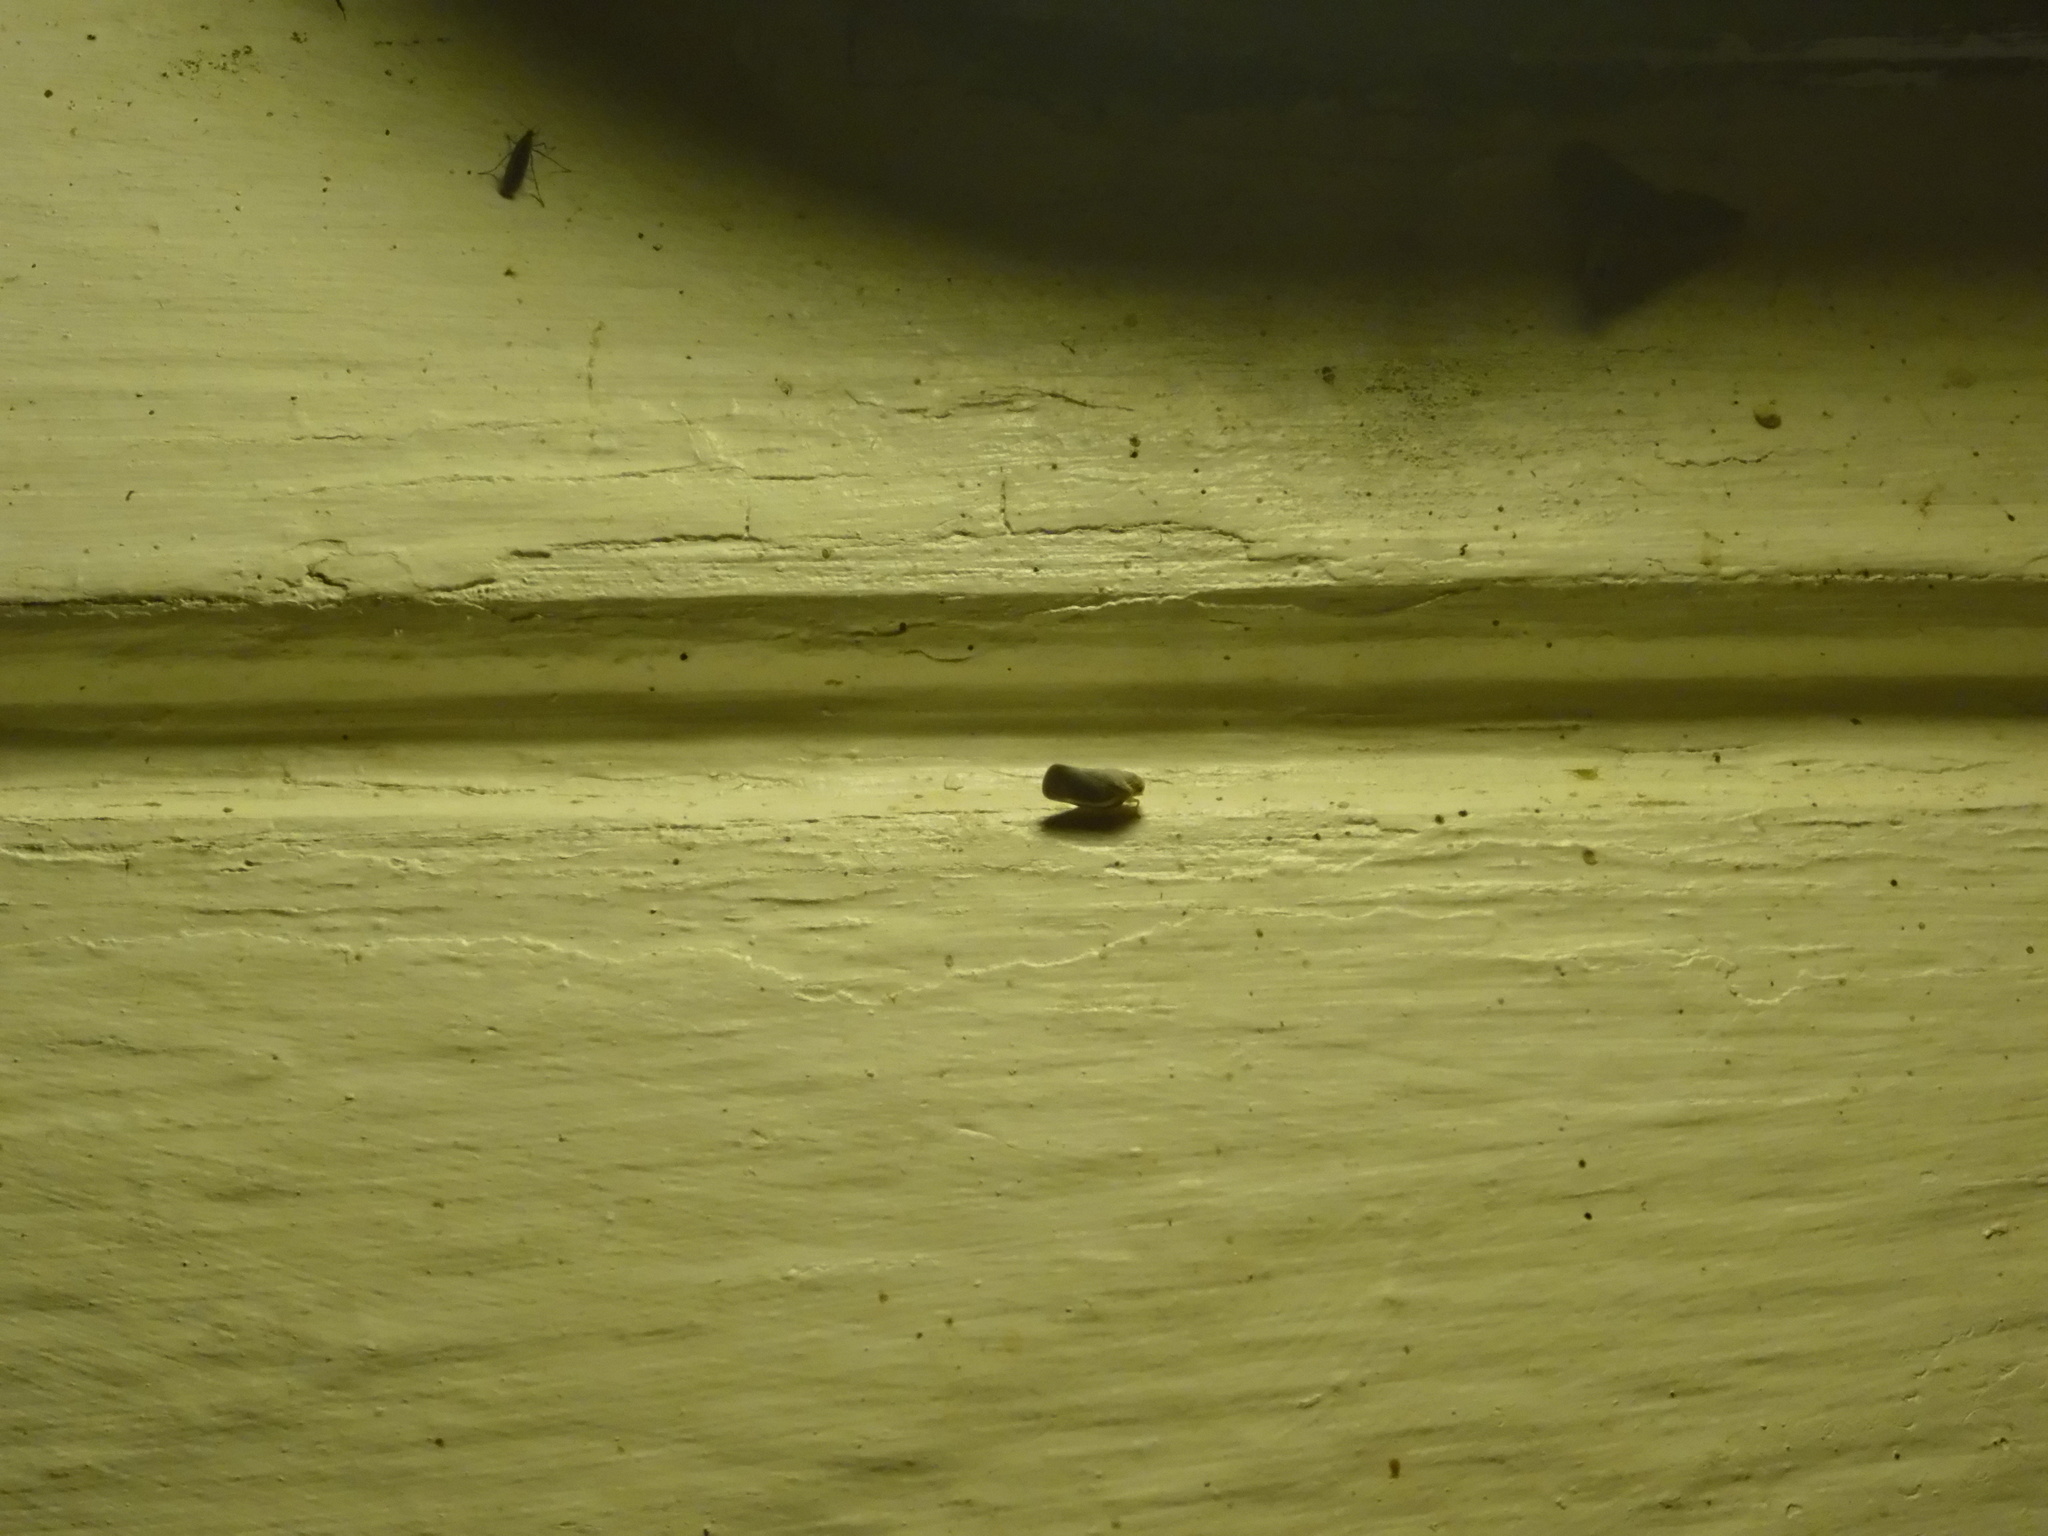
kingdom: Animalia
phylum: Arthropoda
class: Insecta
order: Hemiptera
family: Flatidae
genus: Petrusa
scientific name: Petrusa epilepsis
